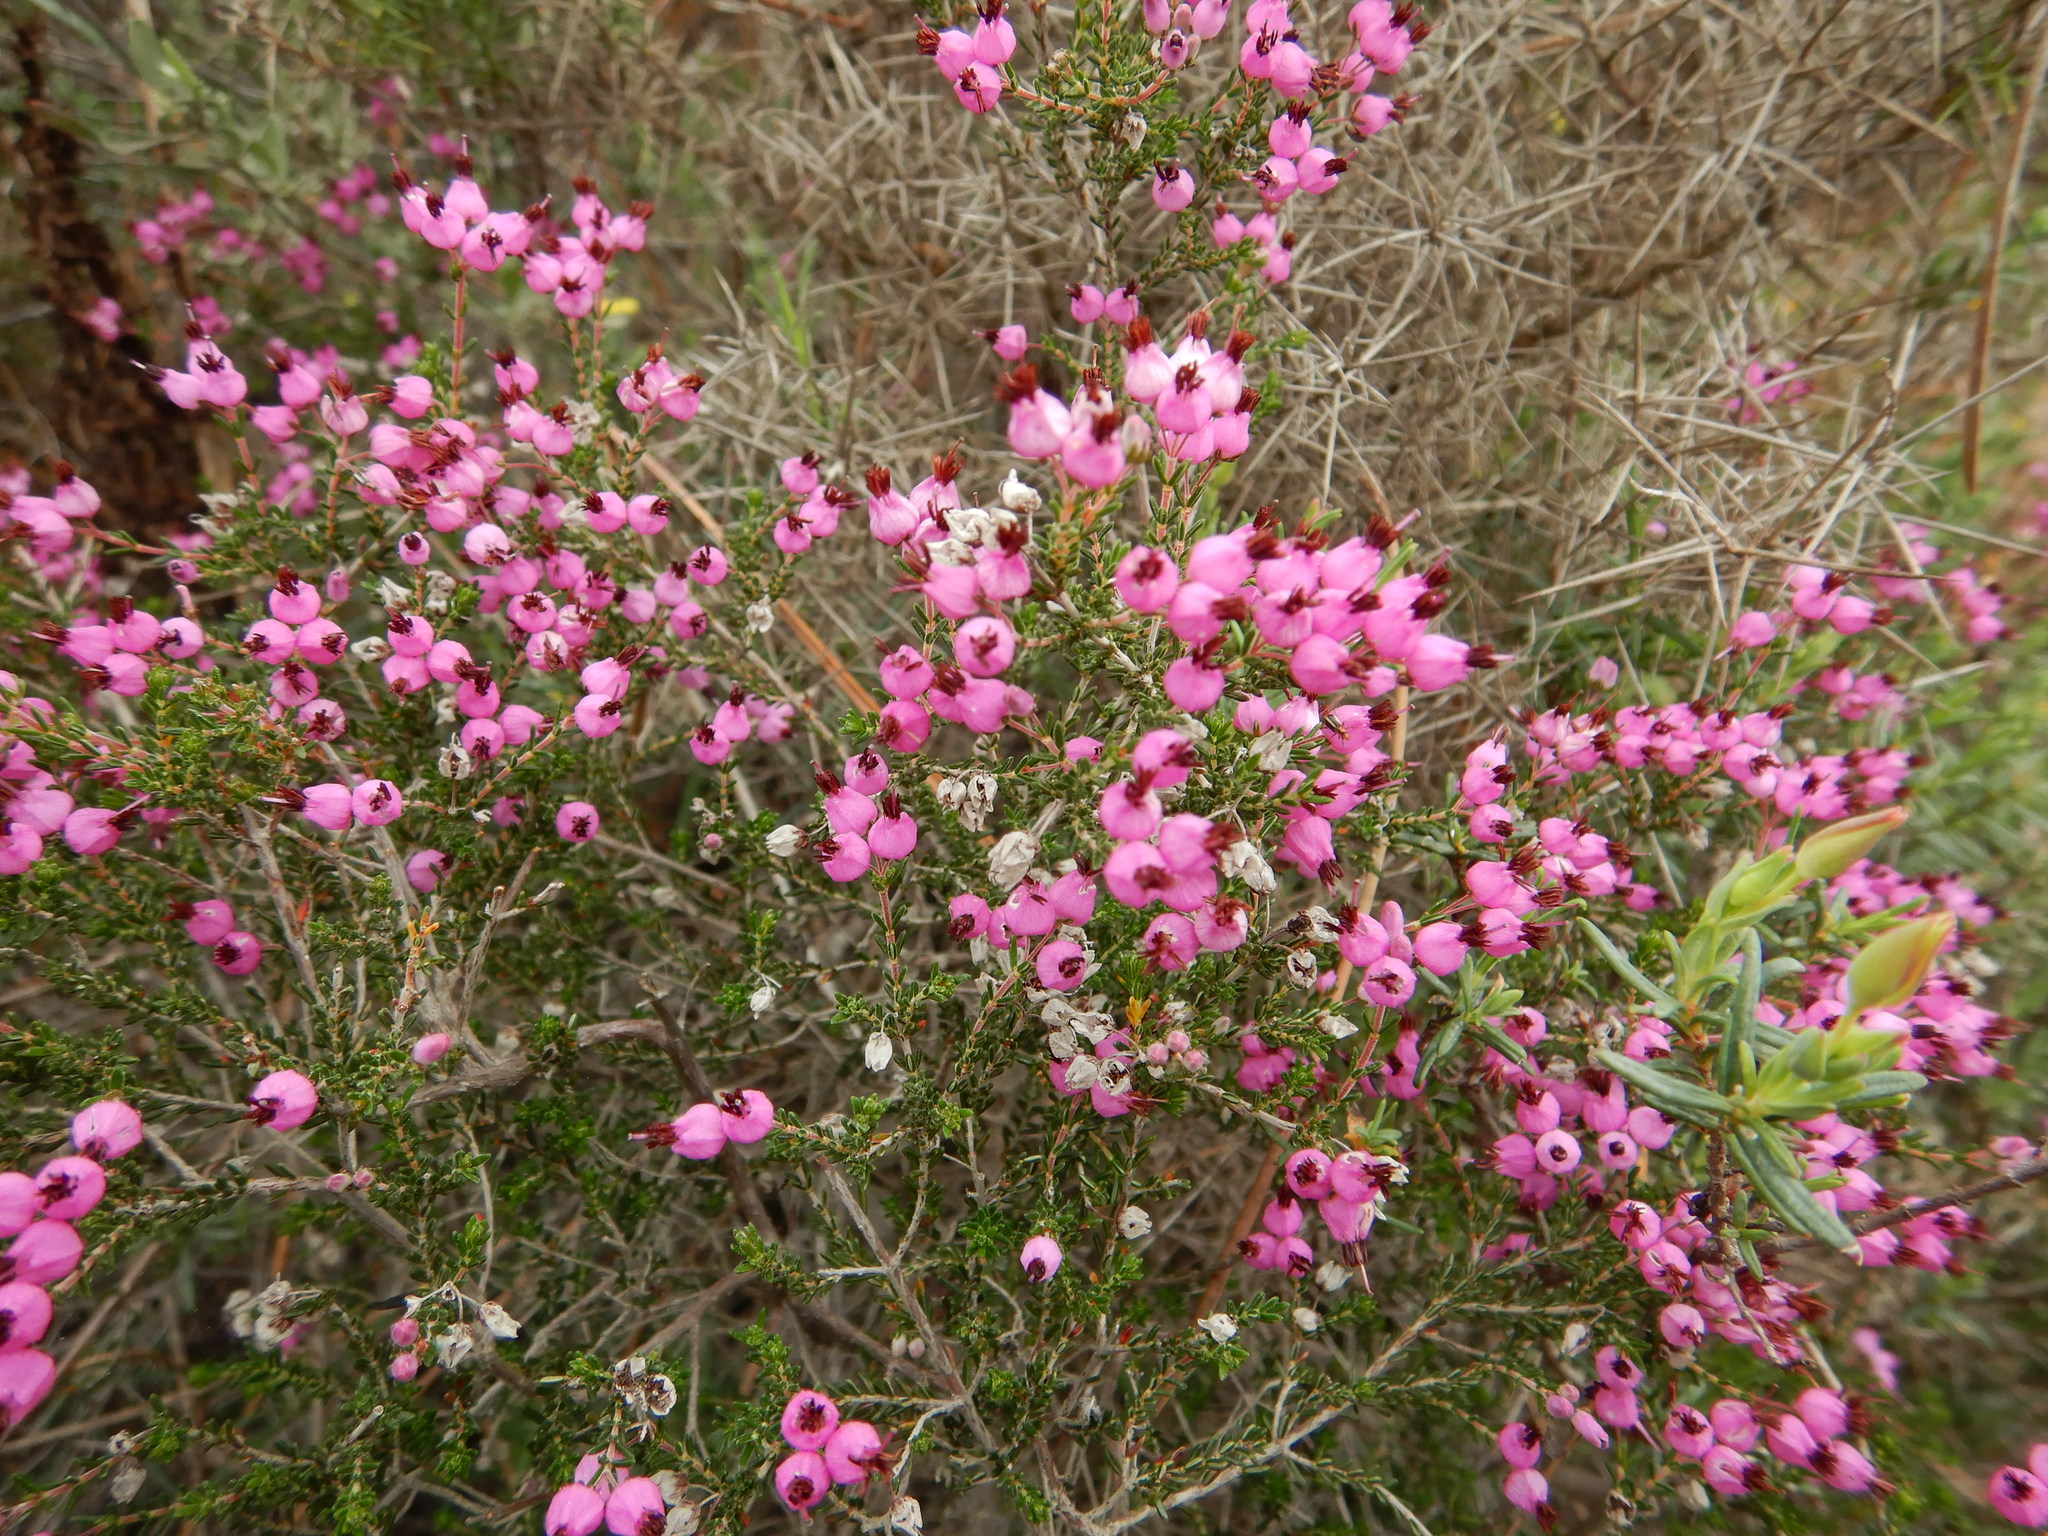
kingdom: Plantae
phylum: Tracheophyta
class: Magnoliopsida
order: Ericales
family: Ericaceae
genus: Erica
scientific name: Erica umbellata
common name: Dwarf spanish heath
